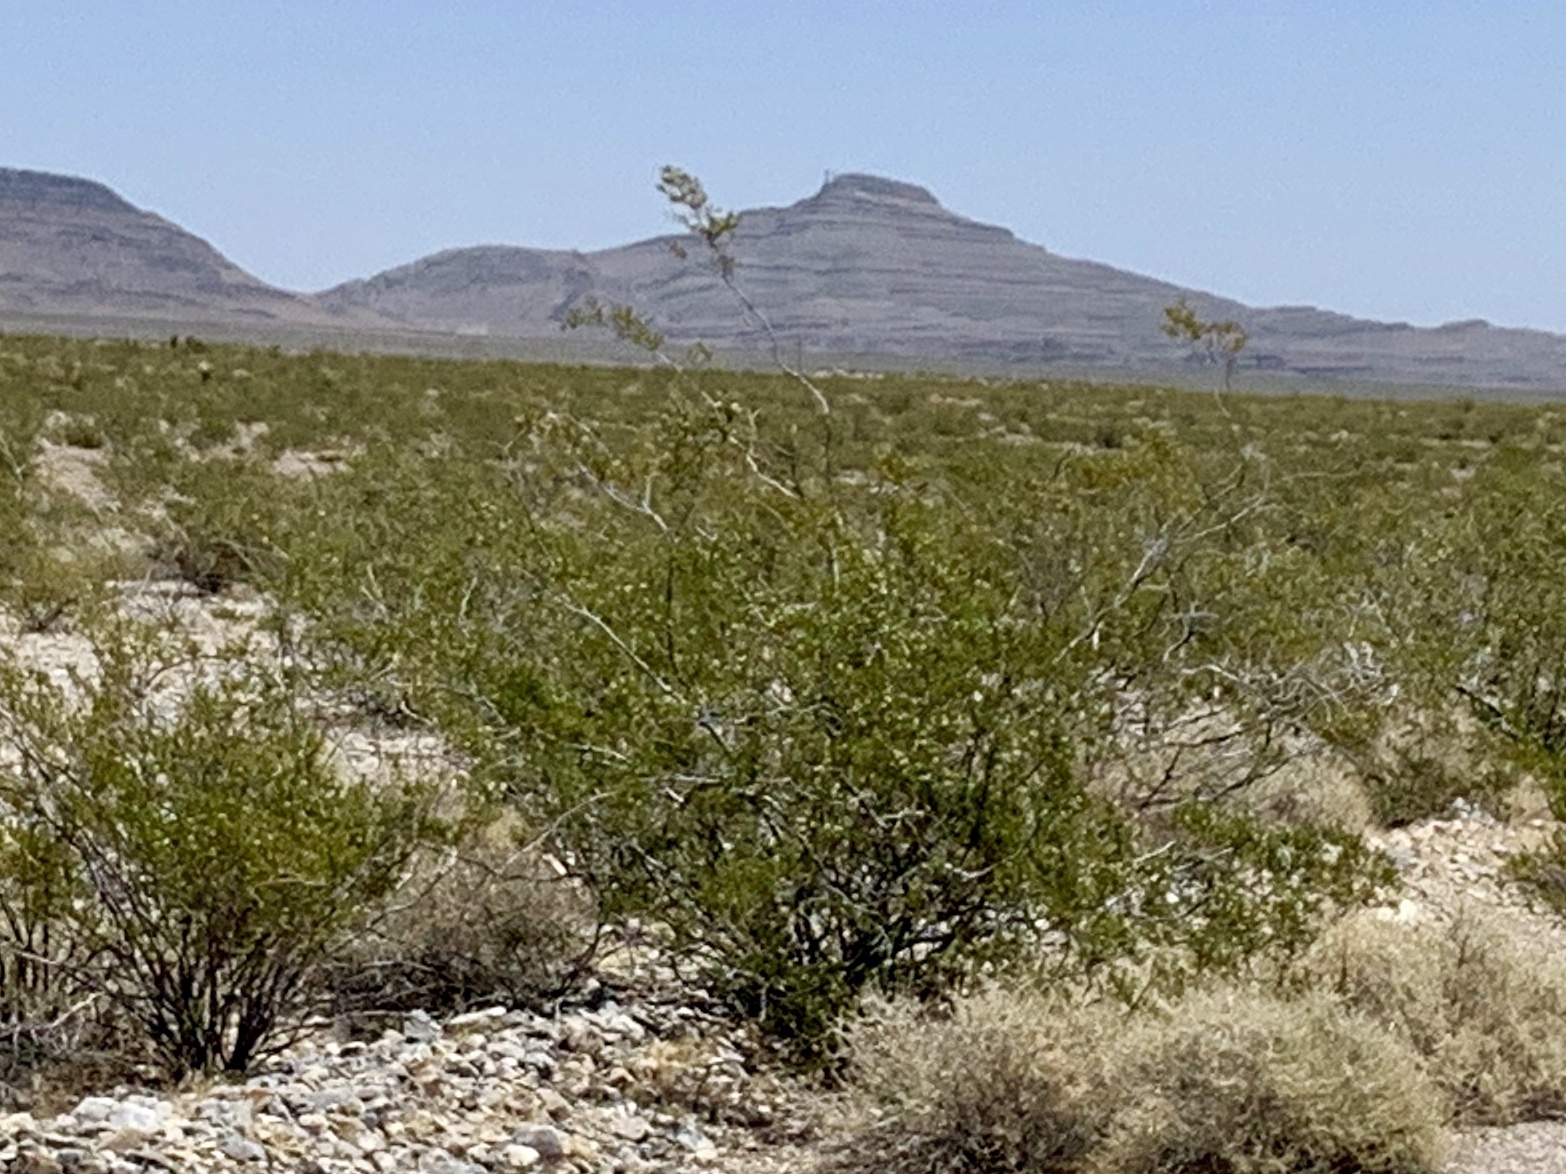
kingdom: Plantae
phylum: Tracheophyta
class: Magnoliopsida
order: Zygophyllales
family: Zygophyllaceae
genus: Larrea
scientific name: Larrea tridentata
